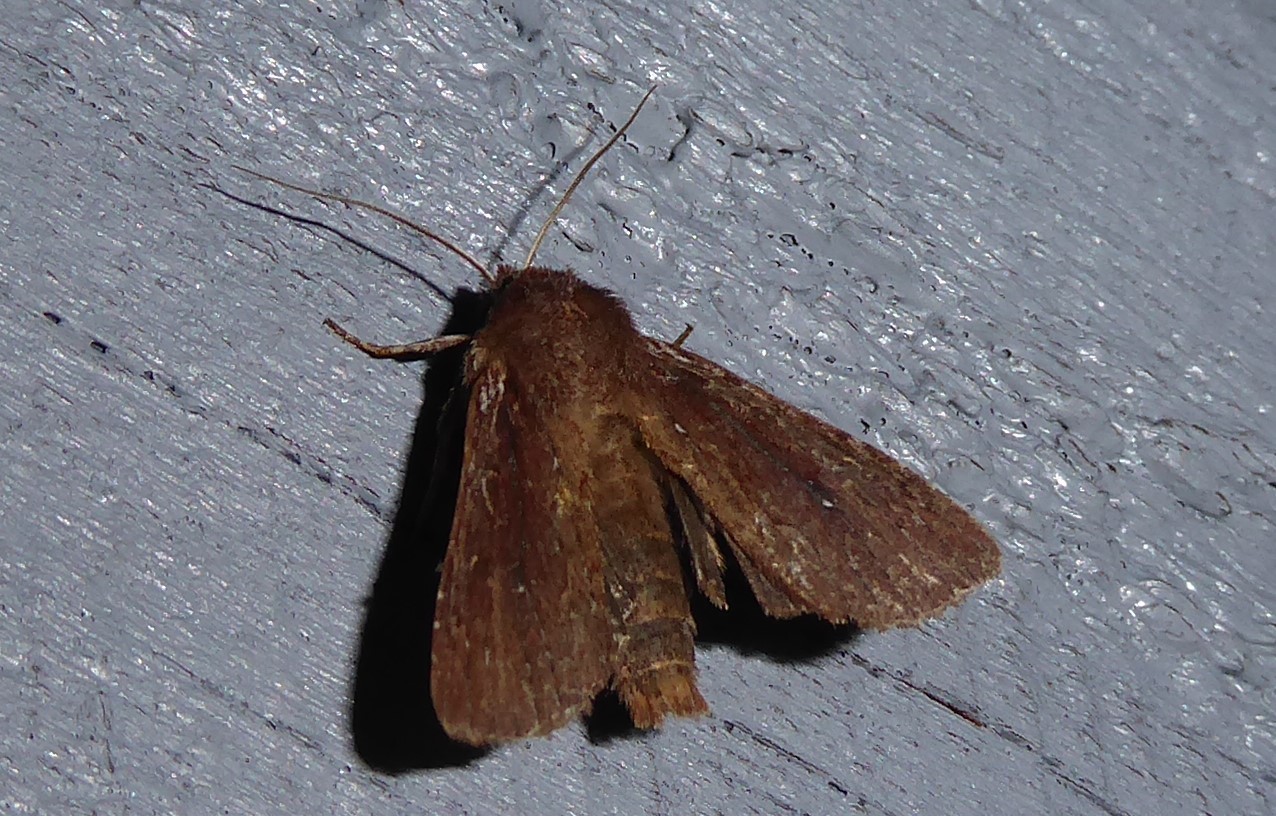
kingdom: Animalia
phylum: Arthropoda
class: Insecta
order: Lepidoptera
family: Noctuidae
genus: Ichneutica
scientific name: Ichneutica
